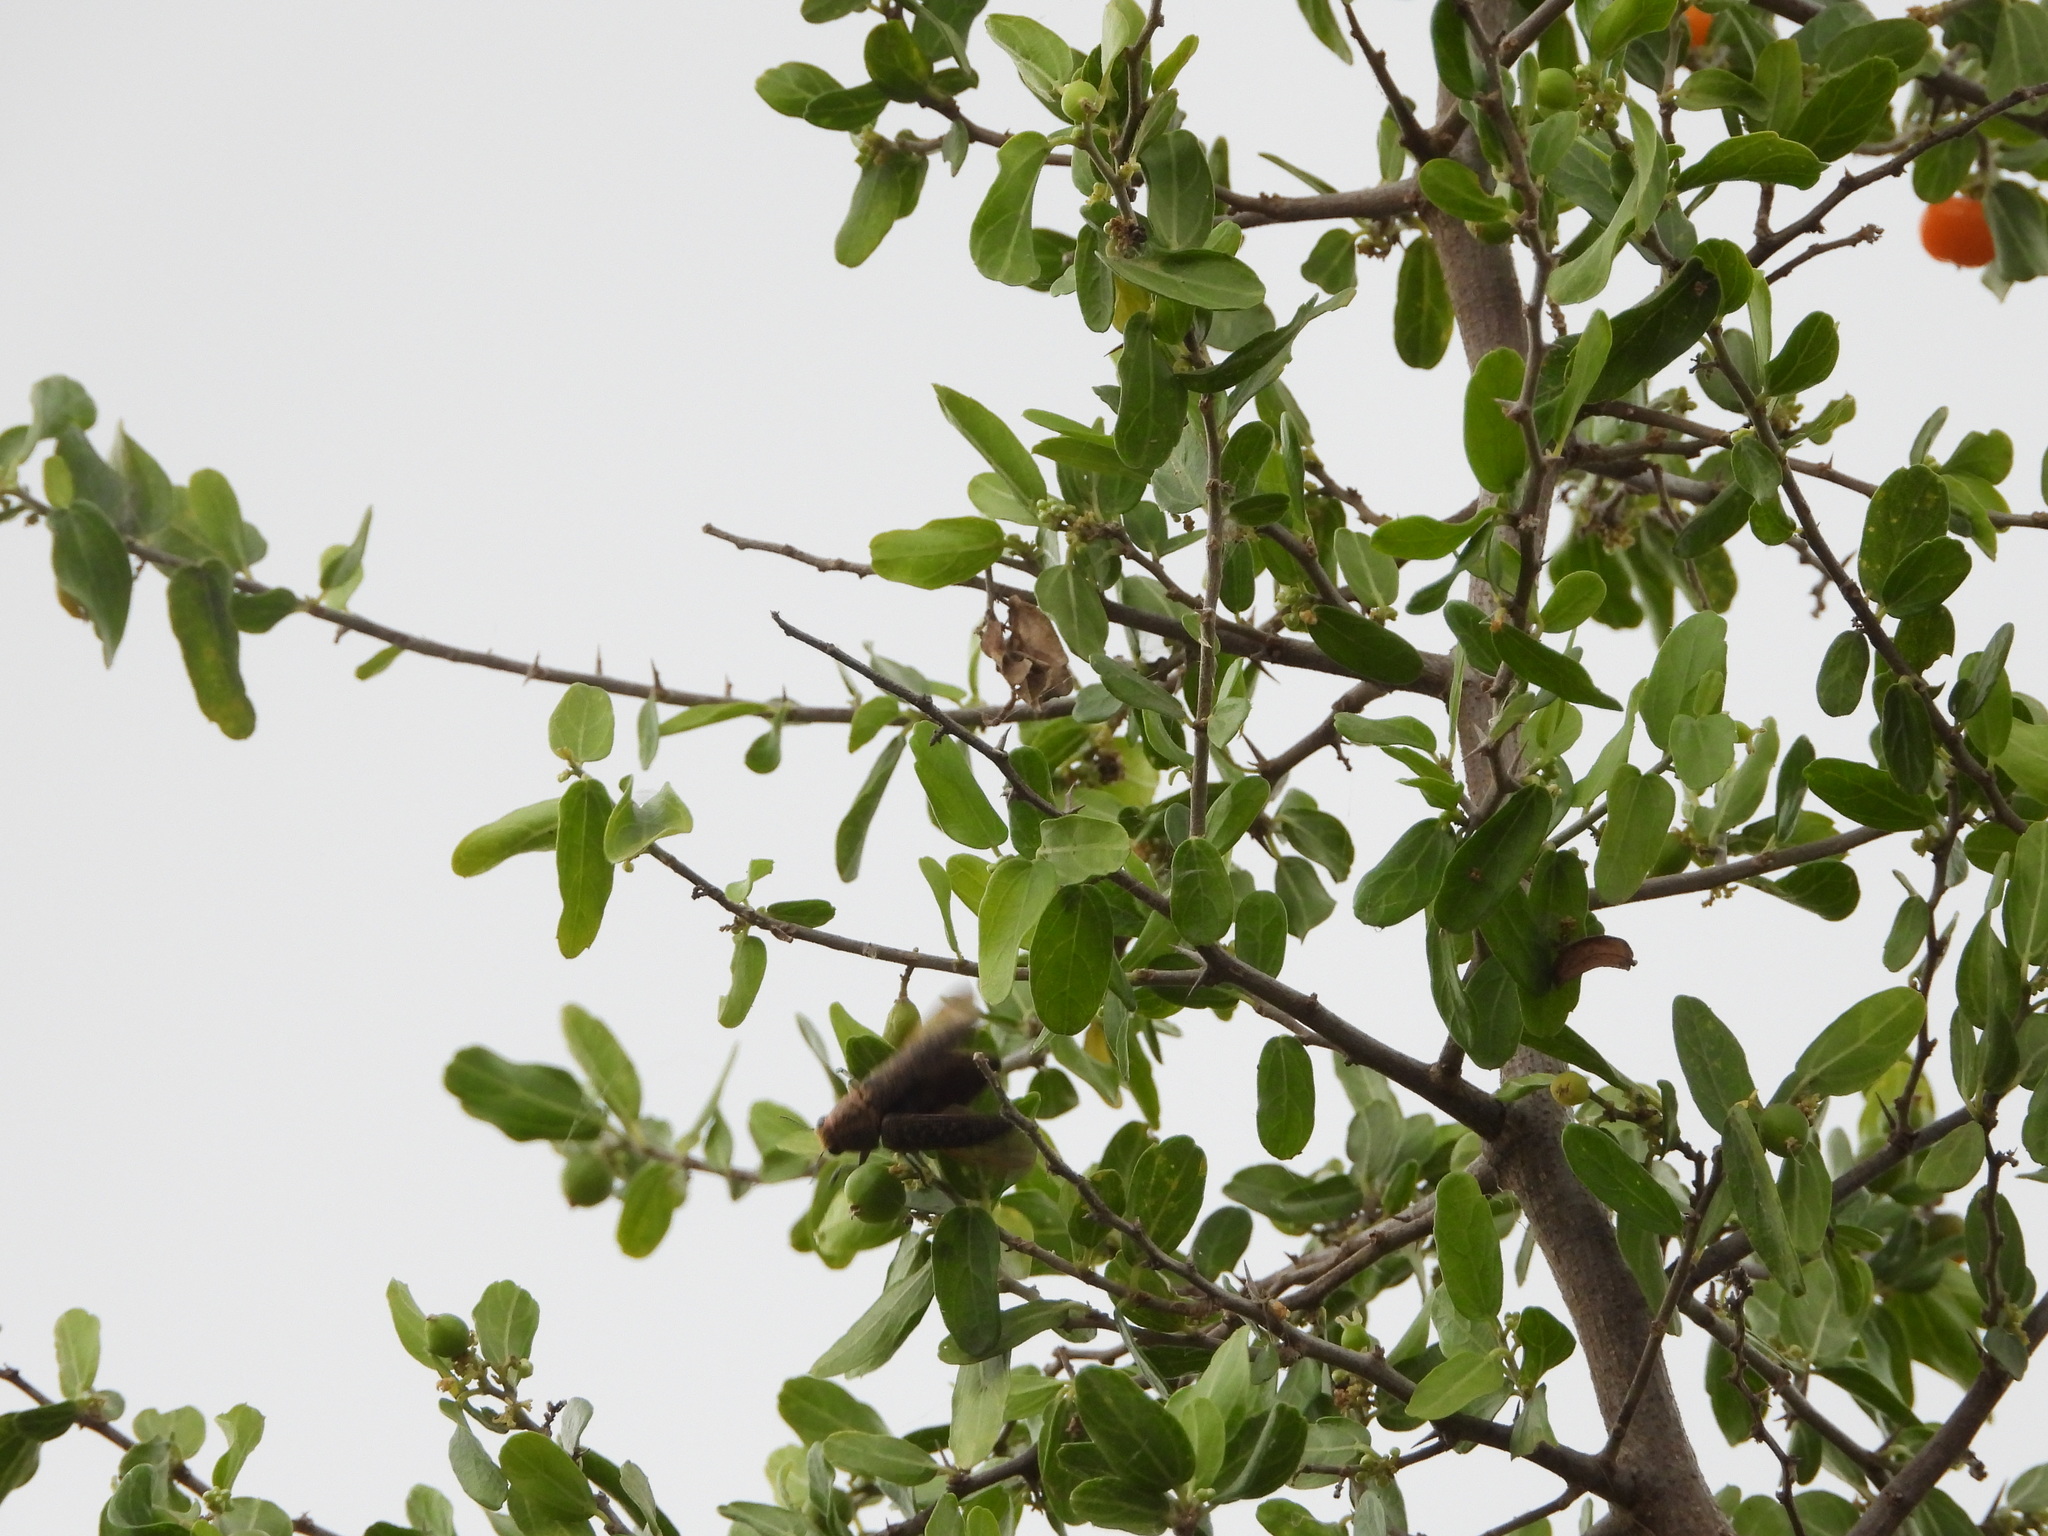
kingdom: Animalia
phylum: Arthropoda
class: Insecta
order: Coleoptera
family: Buprestidae
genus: Lampetis
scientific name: Lampetis cupreopunctata
